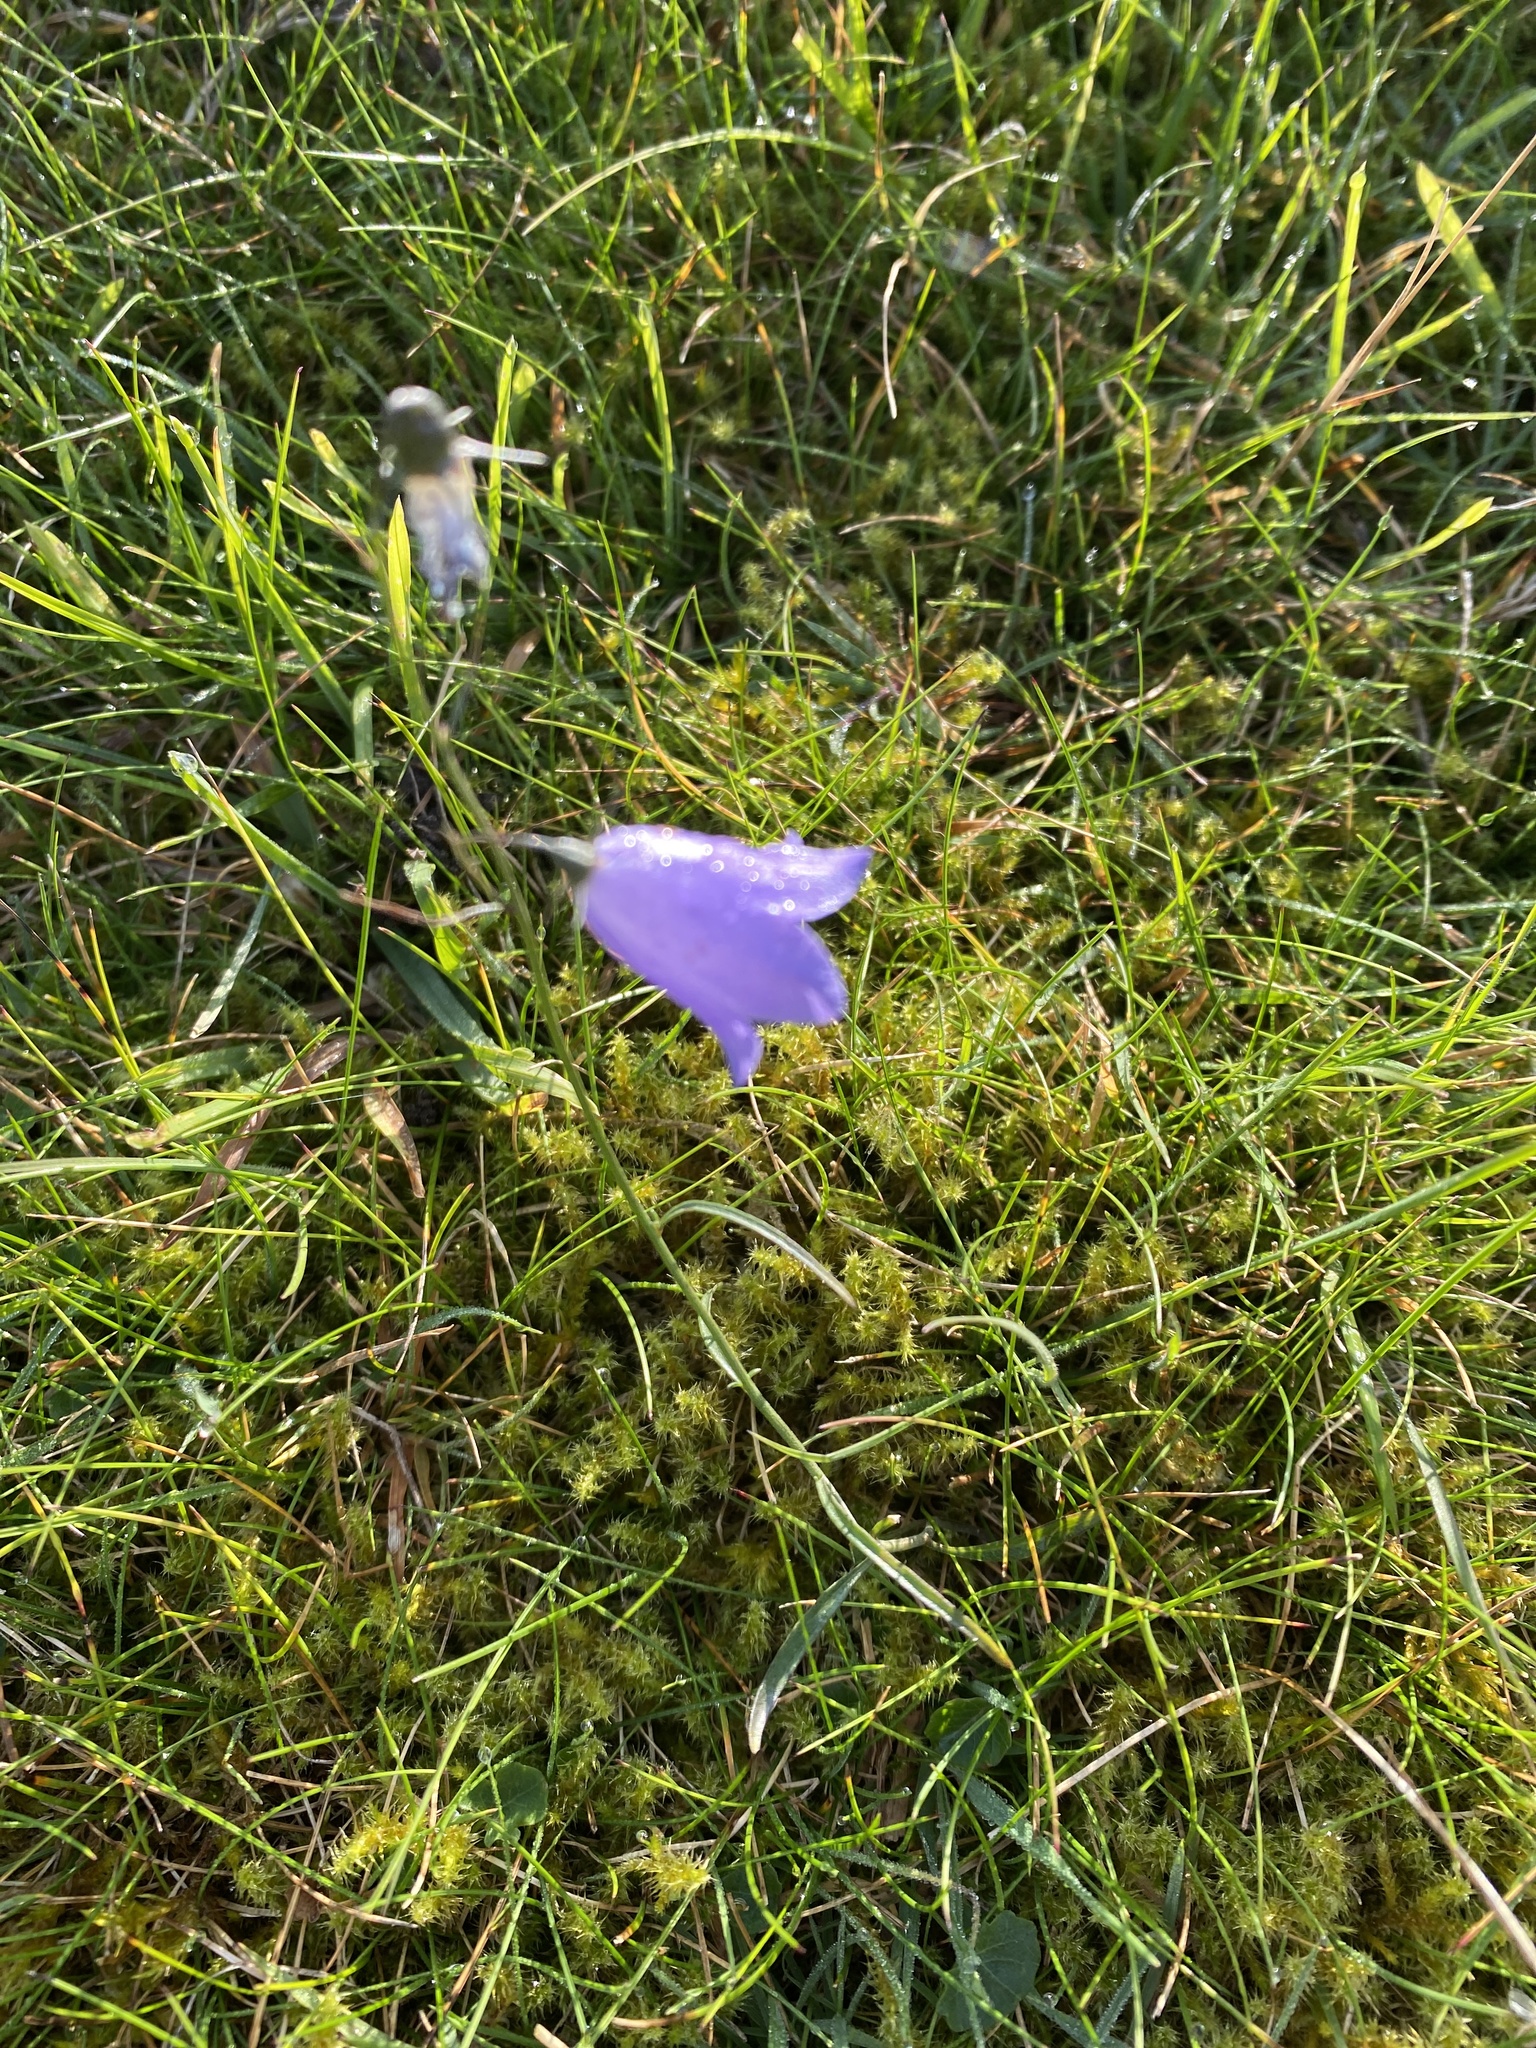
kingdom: Plantae
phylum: Tracheophyta
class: Magnoliopsida
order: Asterales
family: Campanulaceae
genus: Campanula
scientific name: Campanula rotundifolia
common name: Harebell
